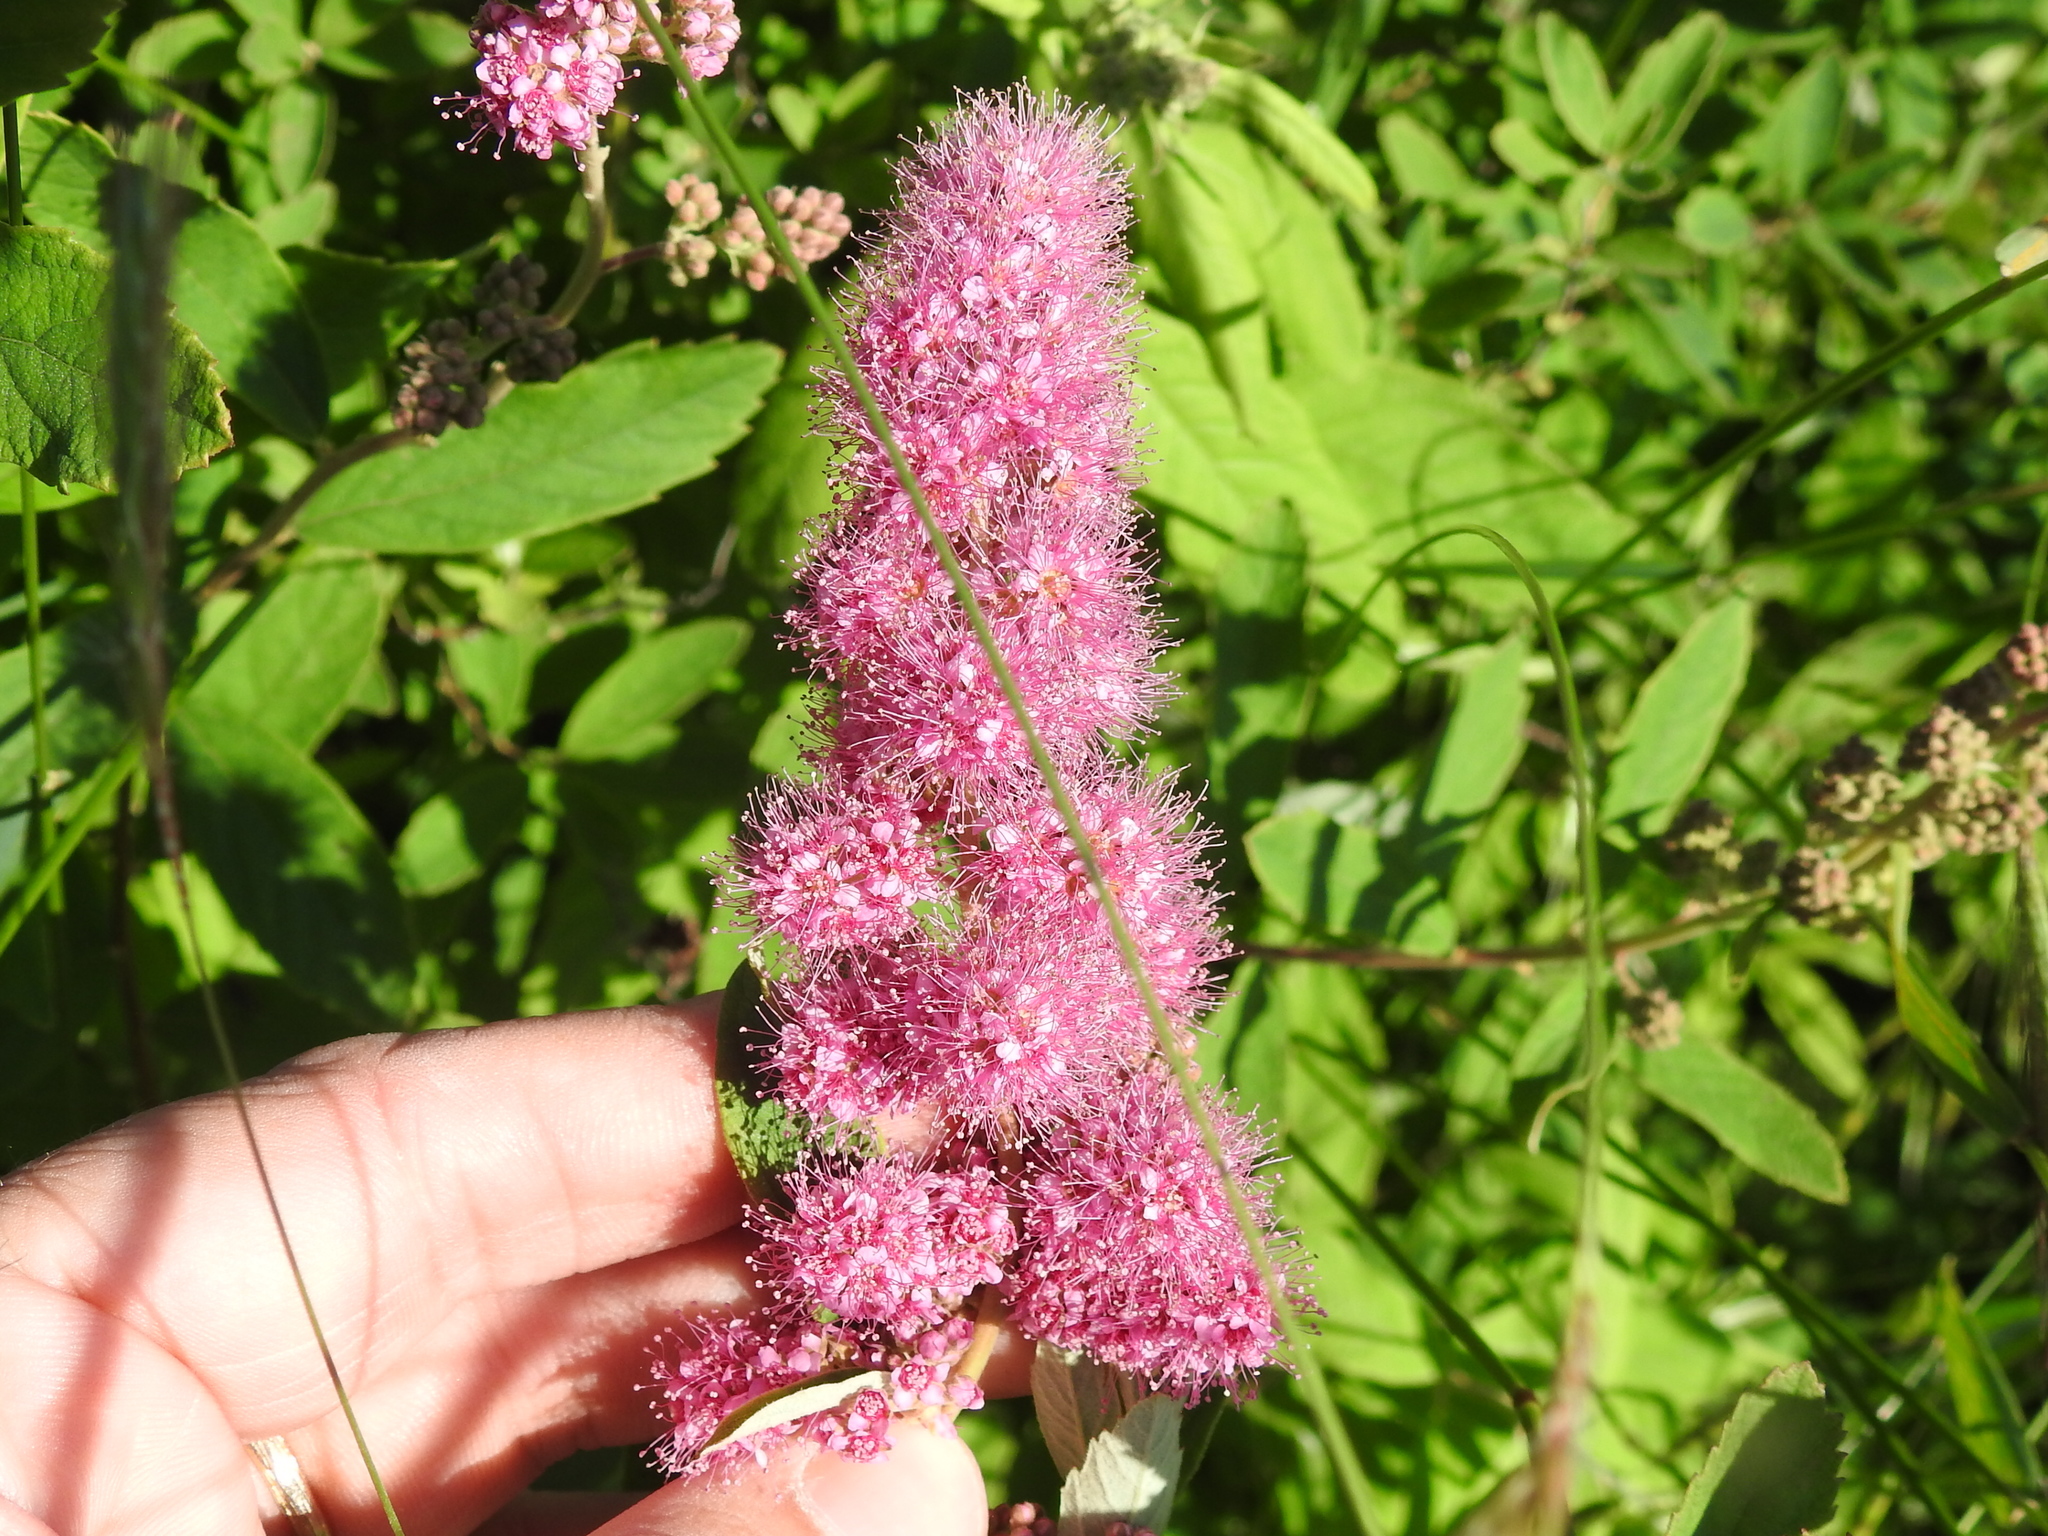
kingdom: Plantae
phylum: Tracheophyta
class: Magnoliopsida
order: Rosales
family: Rosaceae
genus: Spiraea
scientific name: Spiraea douglasii
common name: Steeplebush
